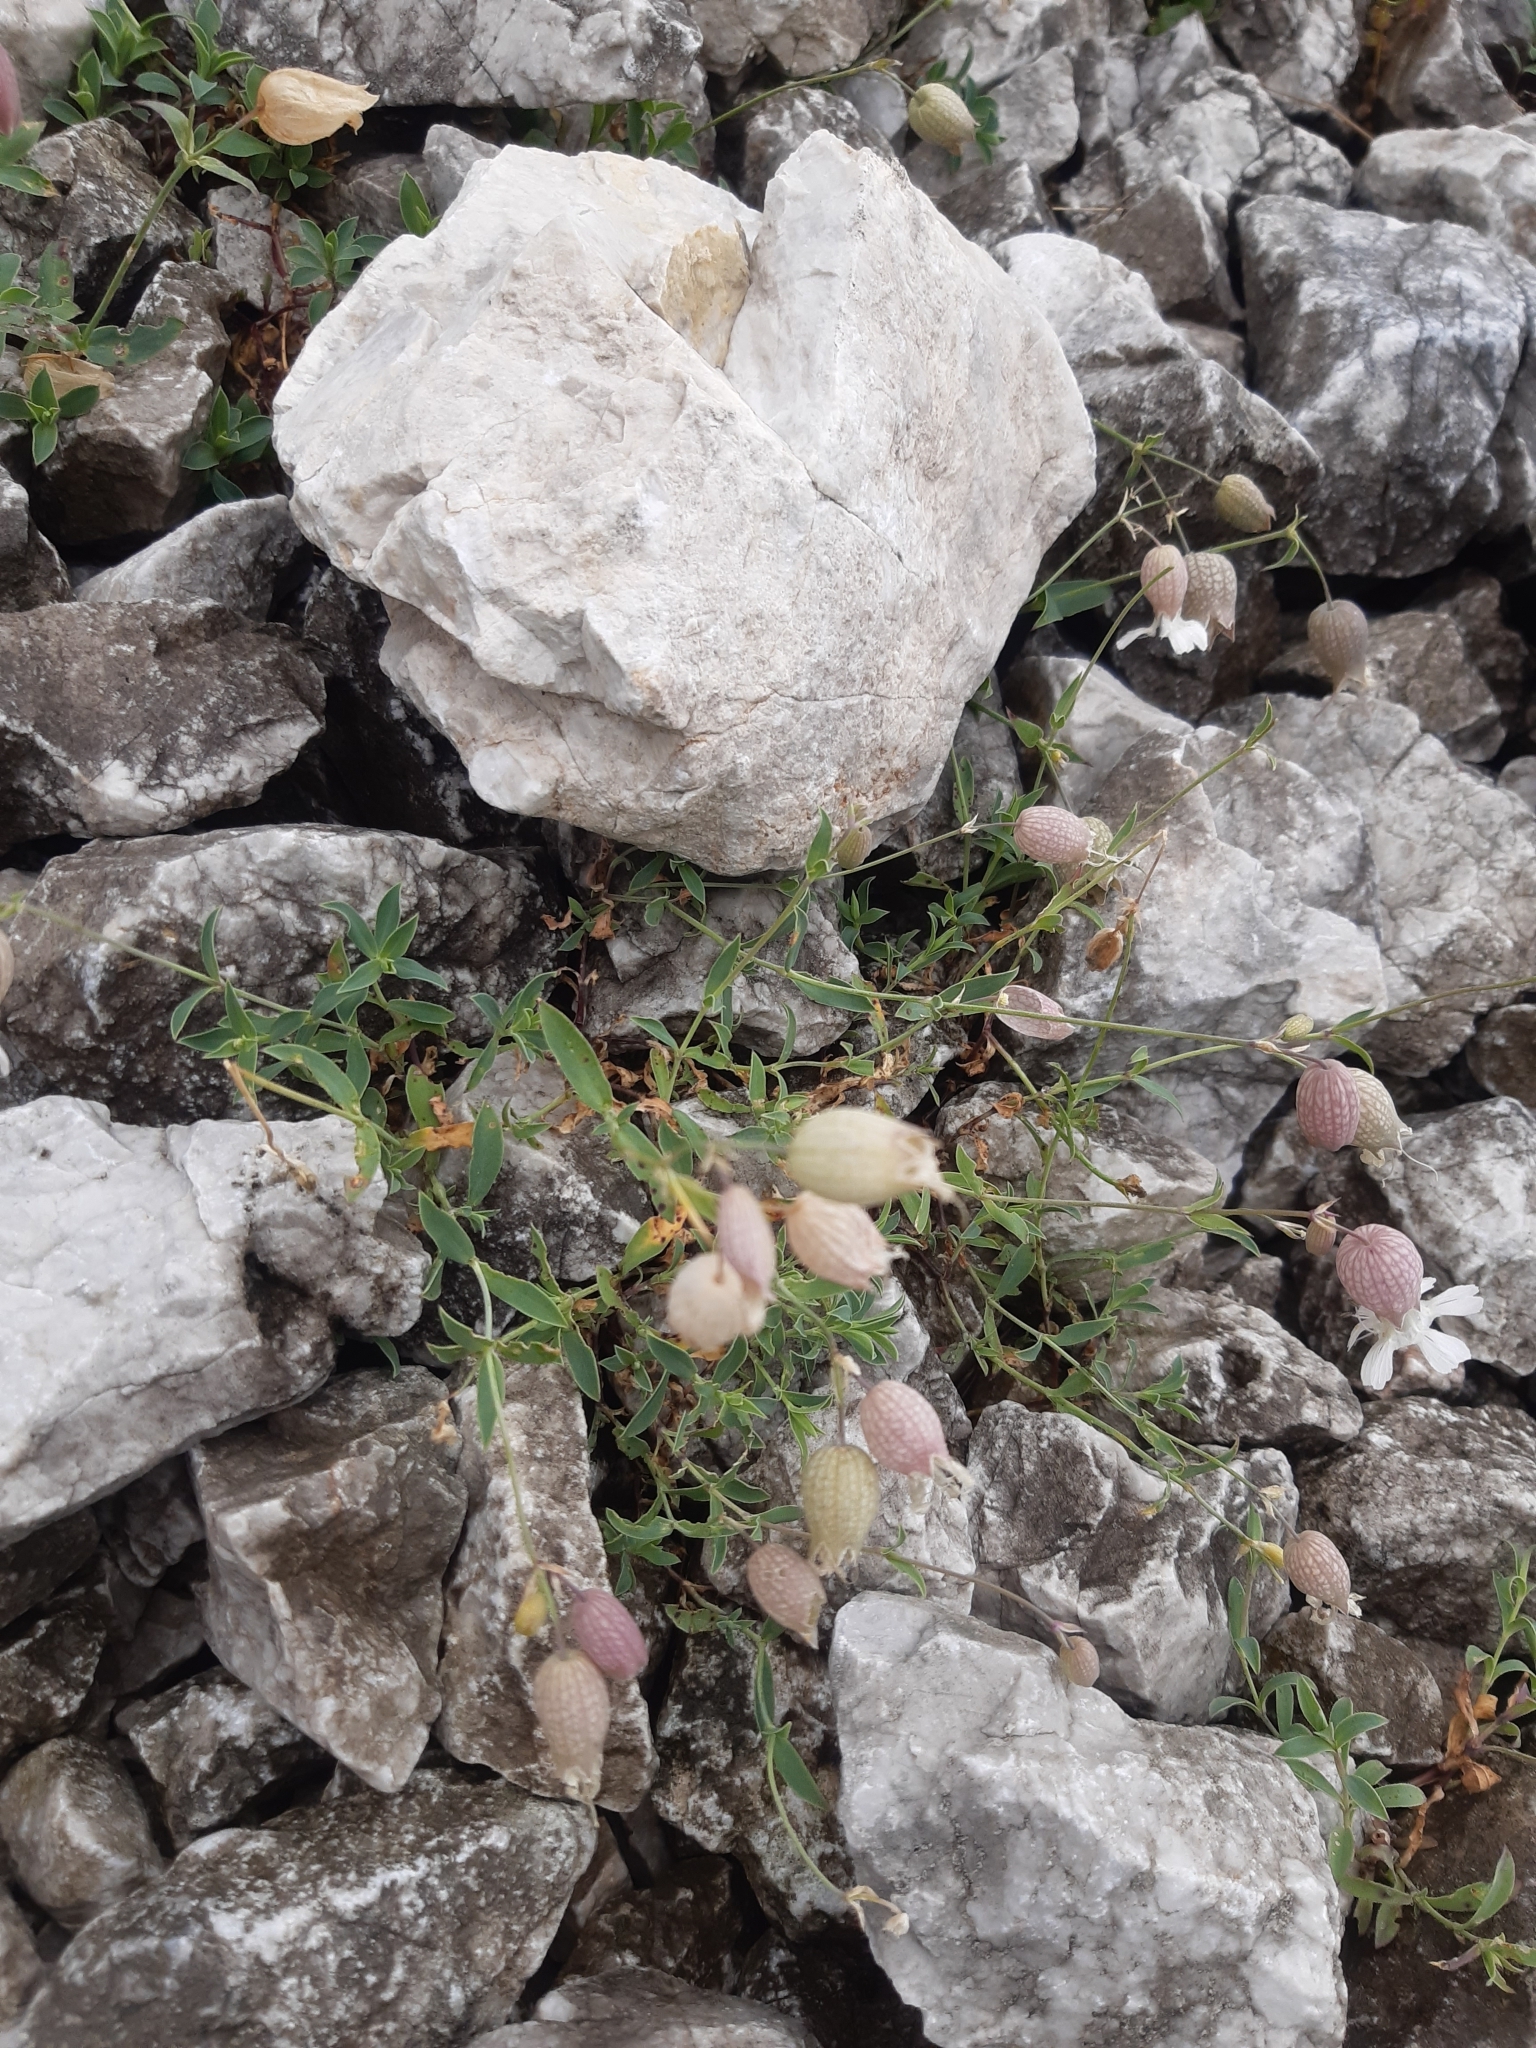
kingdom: Plantae
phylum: Tracheophyta
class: Magnoliopsida
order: Caryophyllales
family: Caryophyllaceae
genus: Silene
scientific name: Silene glareosa
